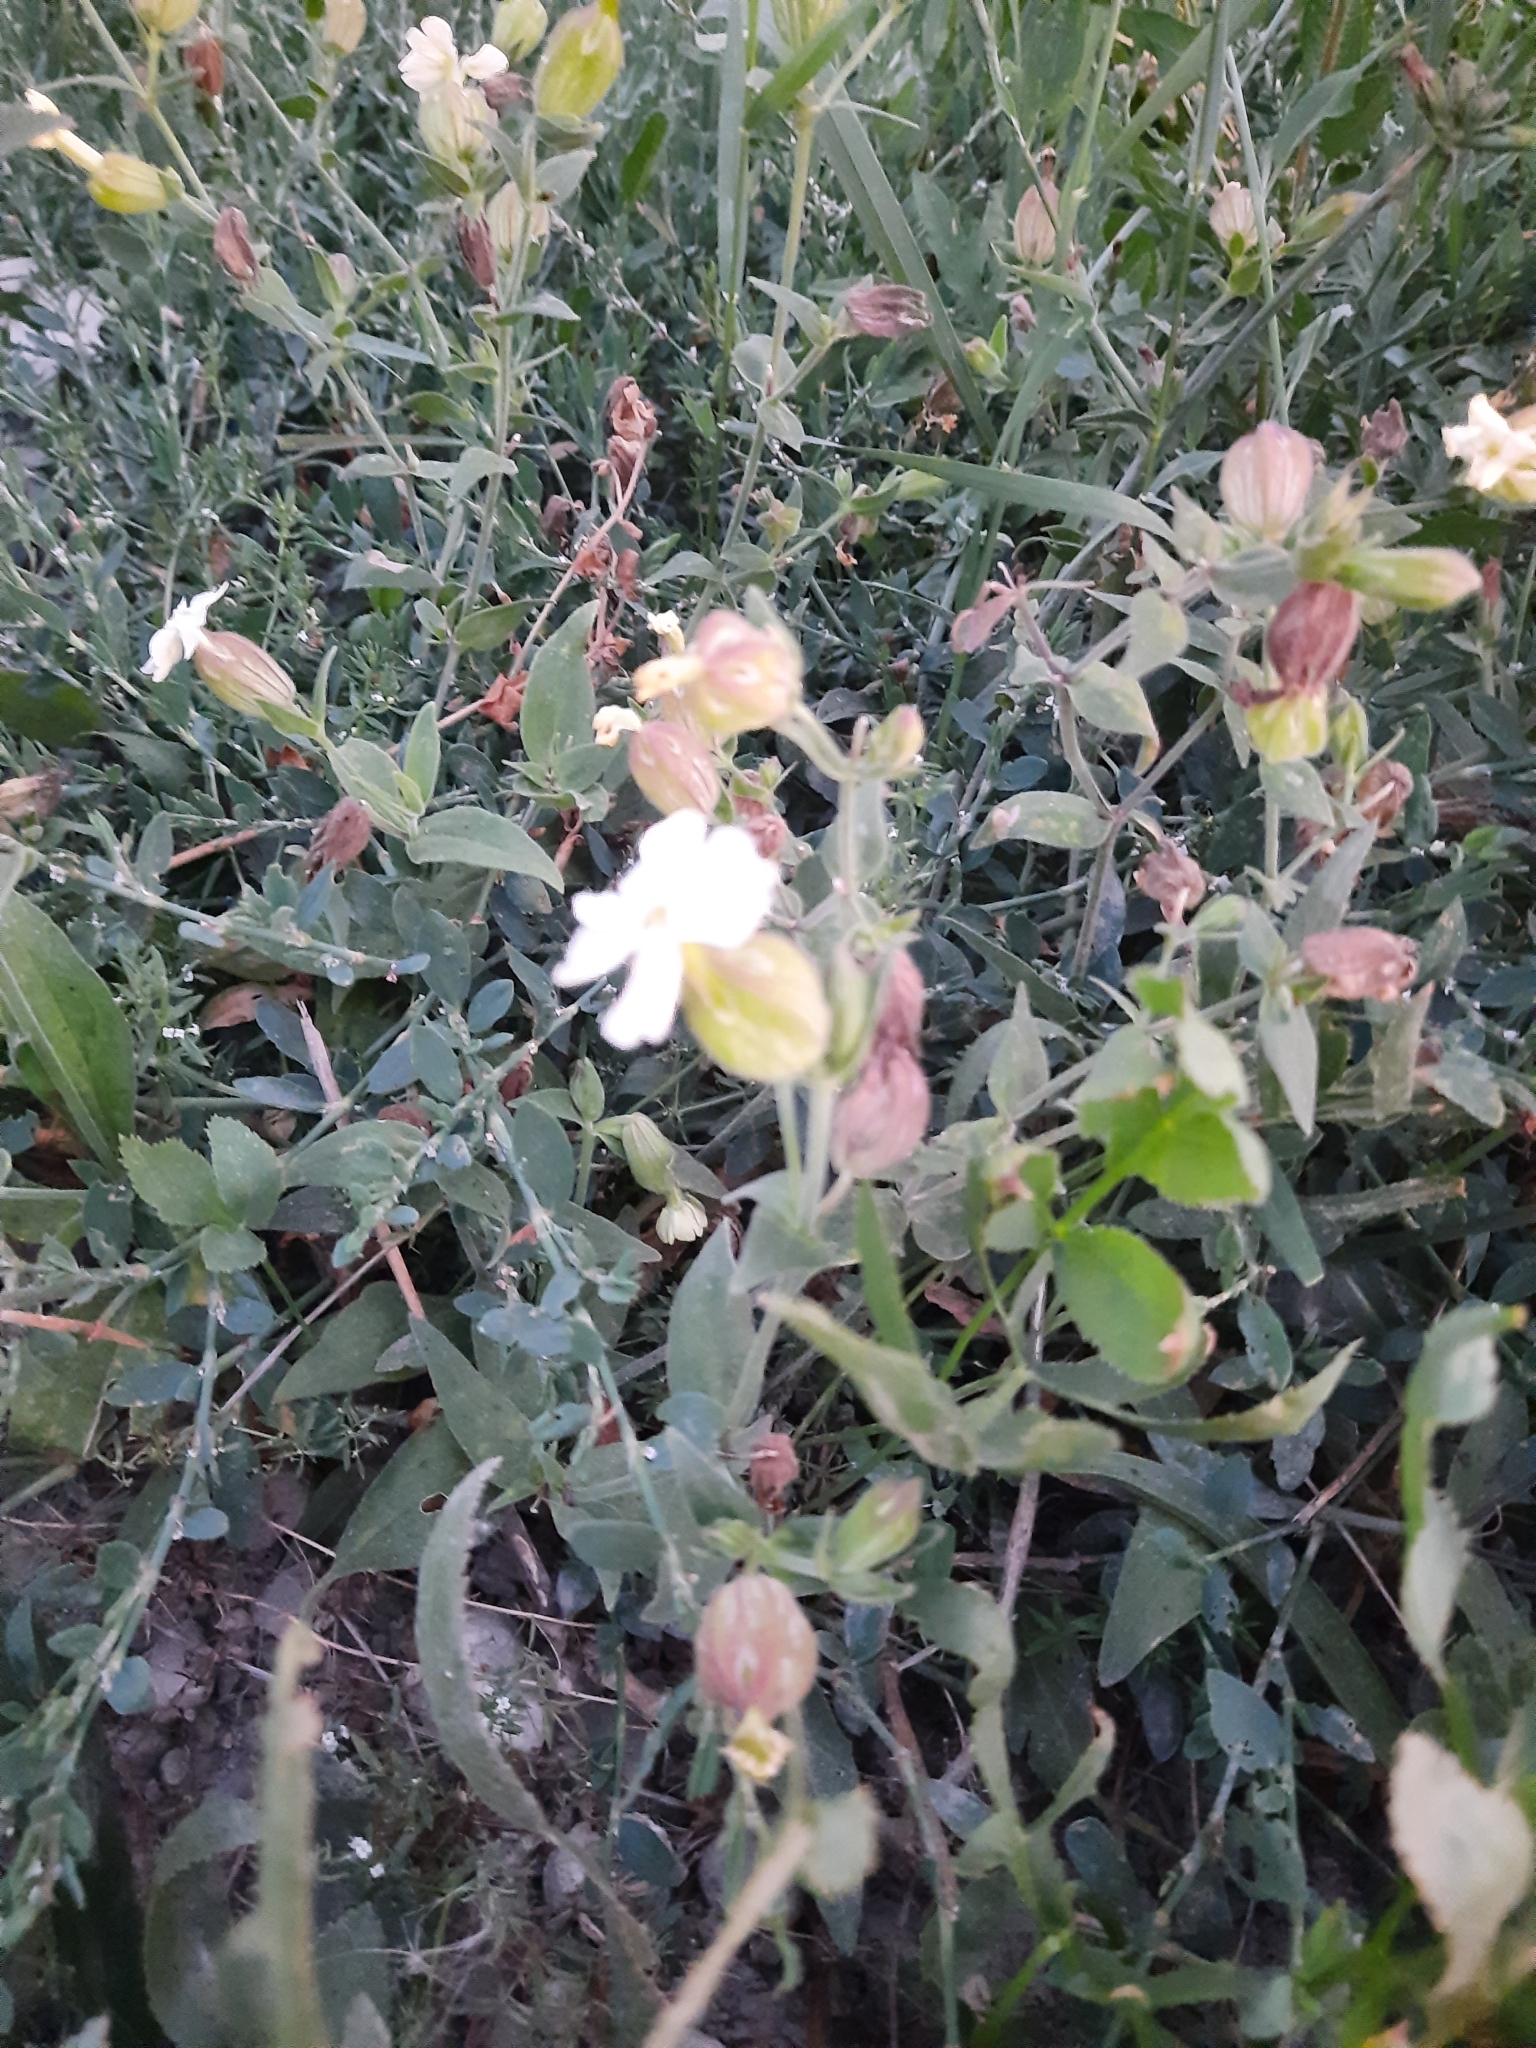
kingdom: Plantae
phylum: Tracheophyta
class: Magnoliopsida
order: Caryophyllales
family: Caryophyllaceae
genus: Silene
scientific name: Silene latifolia
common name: White campion
